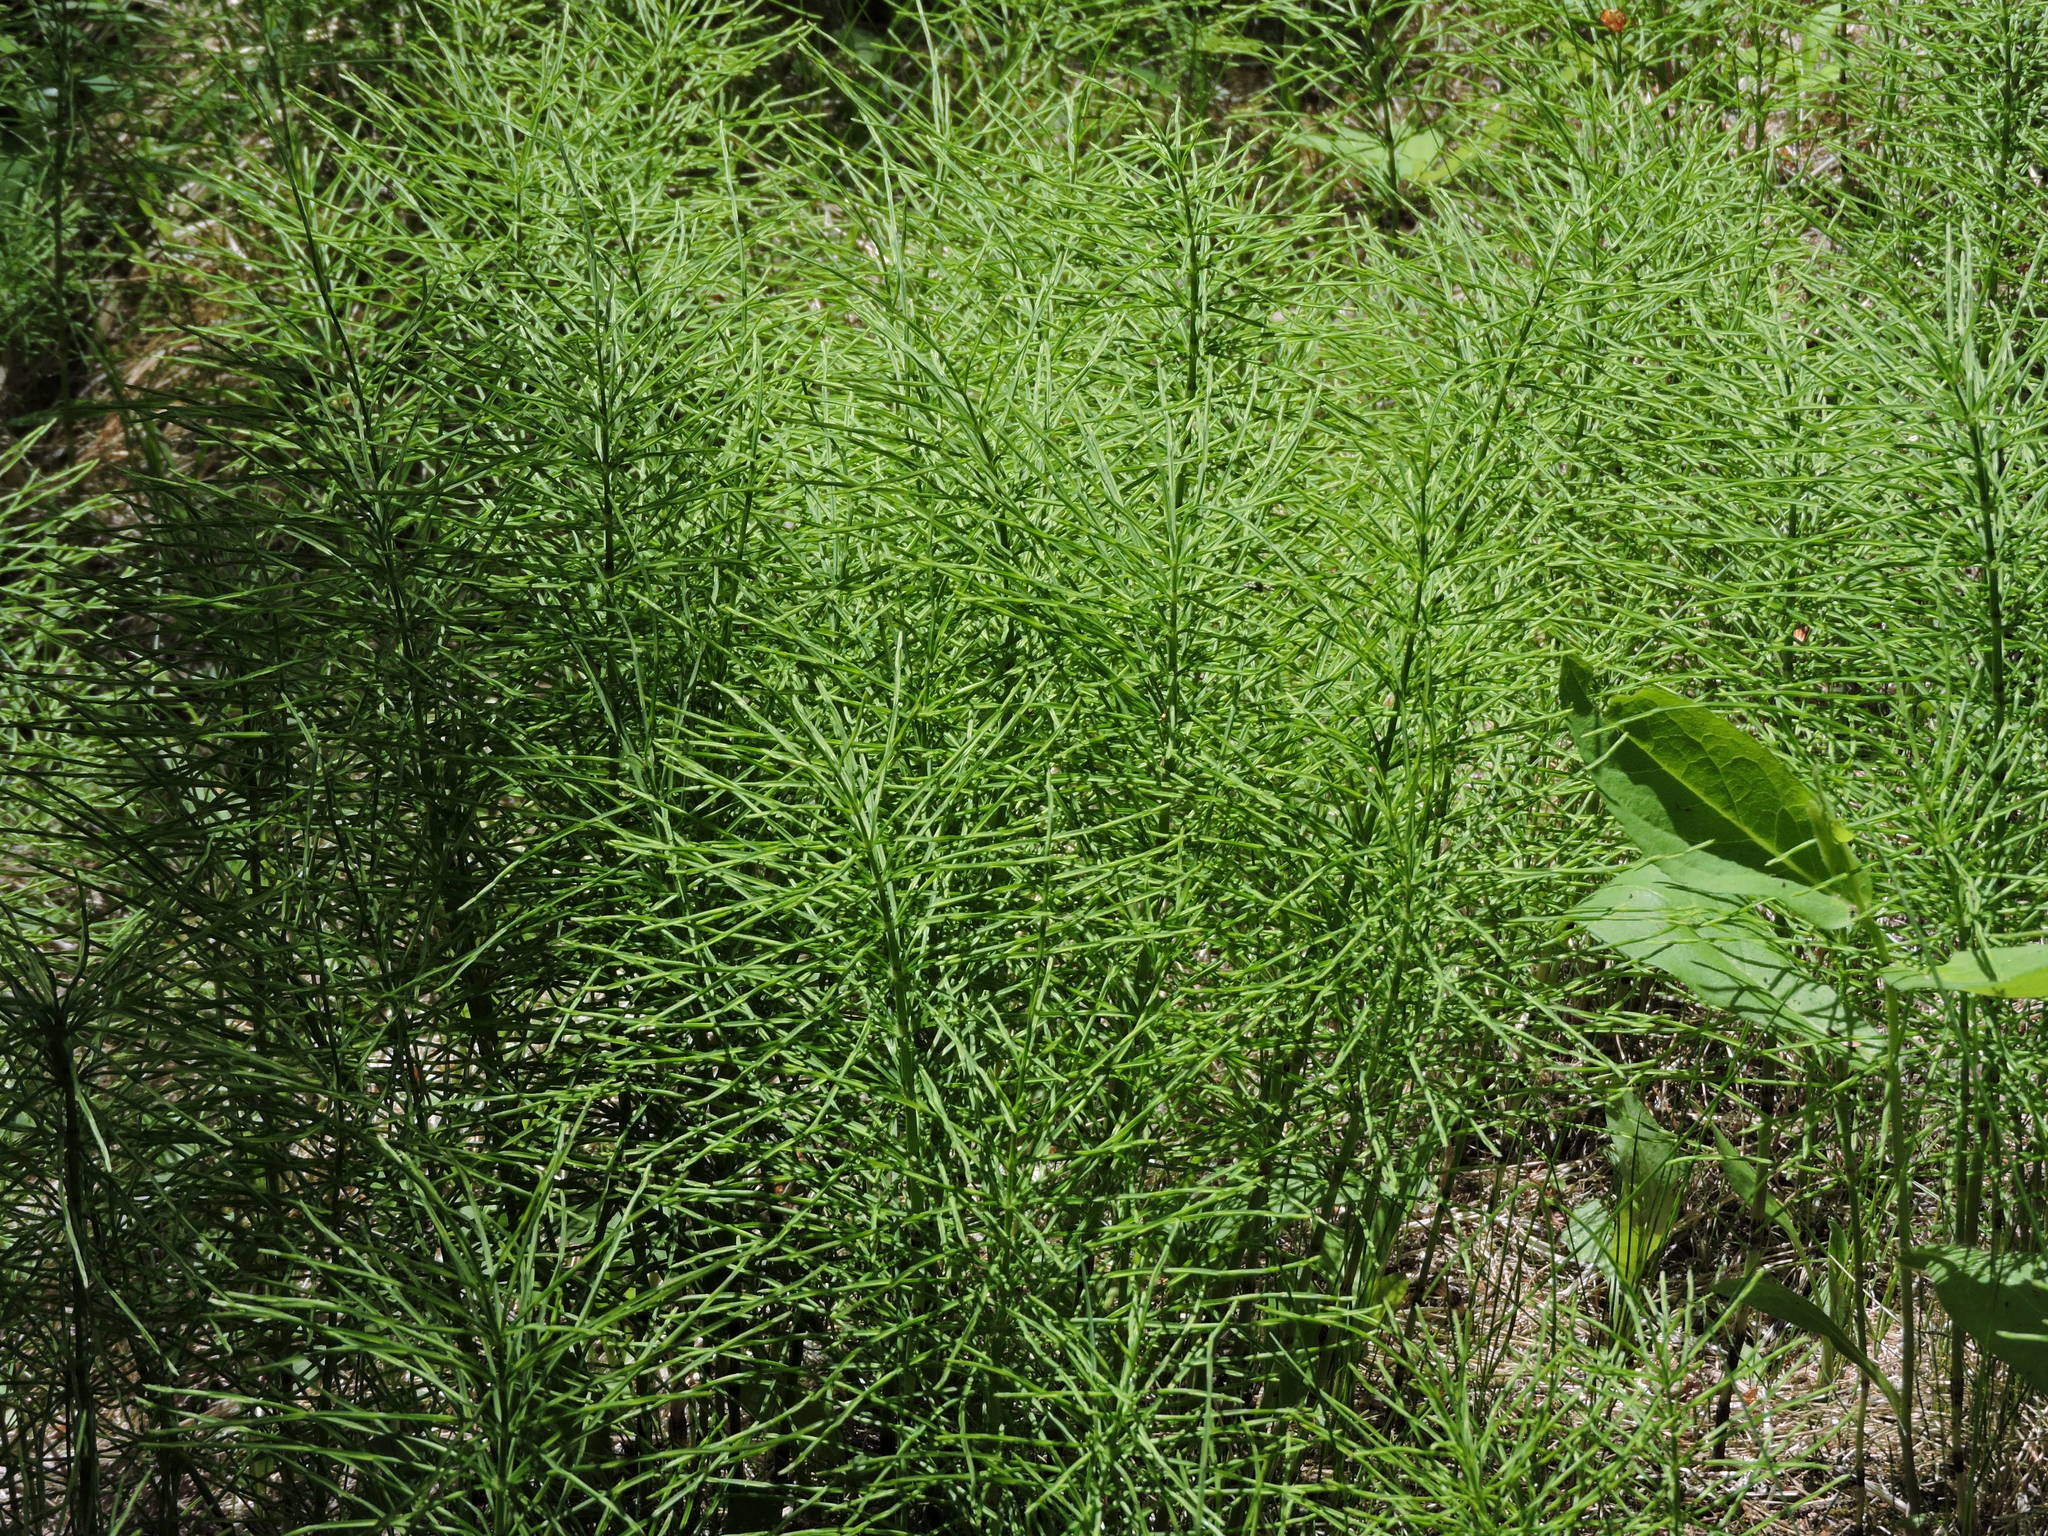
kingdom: Plantae
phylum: Tracheophyta
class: Polypodiopsida
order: Equisetales
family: Equisetaceae
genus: Equisetum
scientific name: Equisetum arvense
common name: Field horsetail
